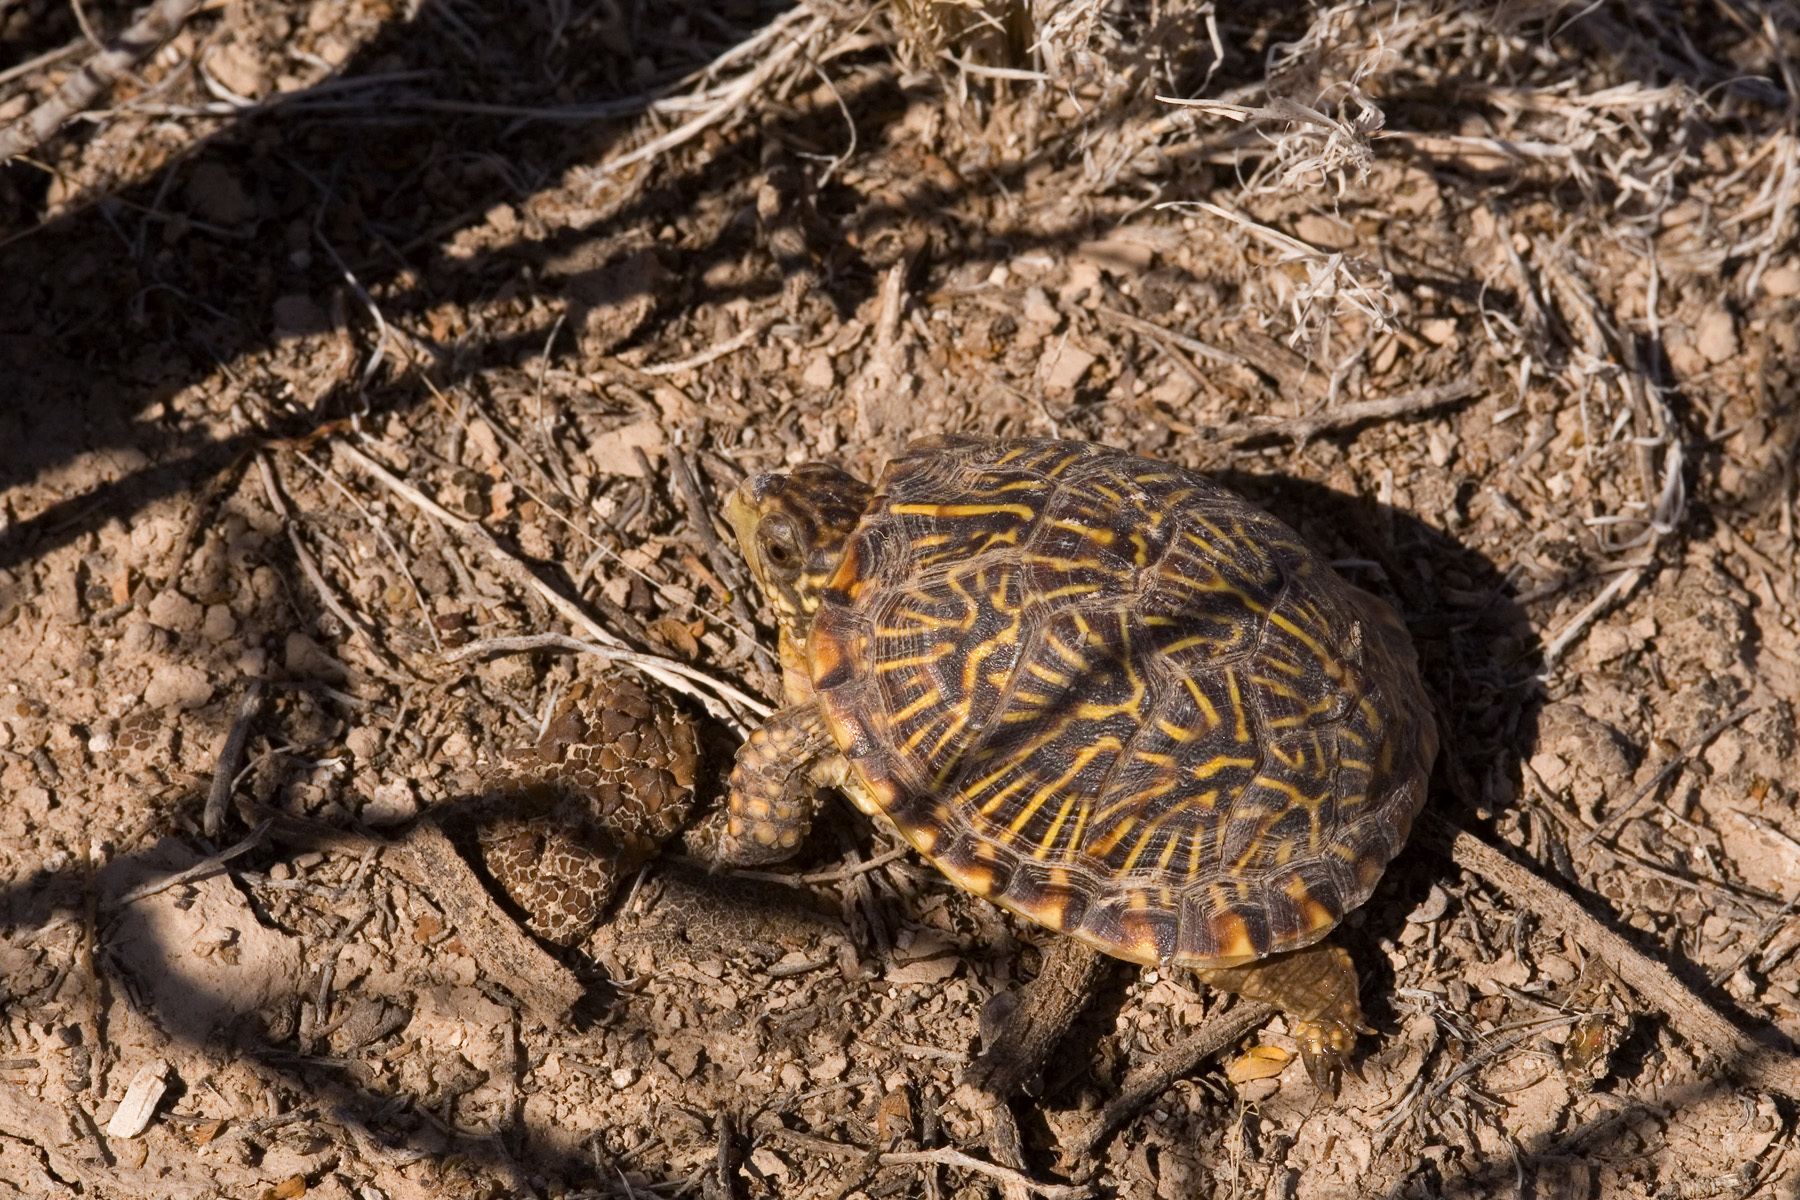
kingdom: Animalia
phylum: Chordata
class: Testudines
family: Emydidae
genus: Terrapene
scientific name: Terrapene ornata
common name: Western box turtle
